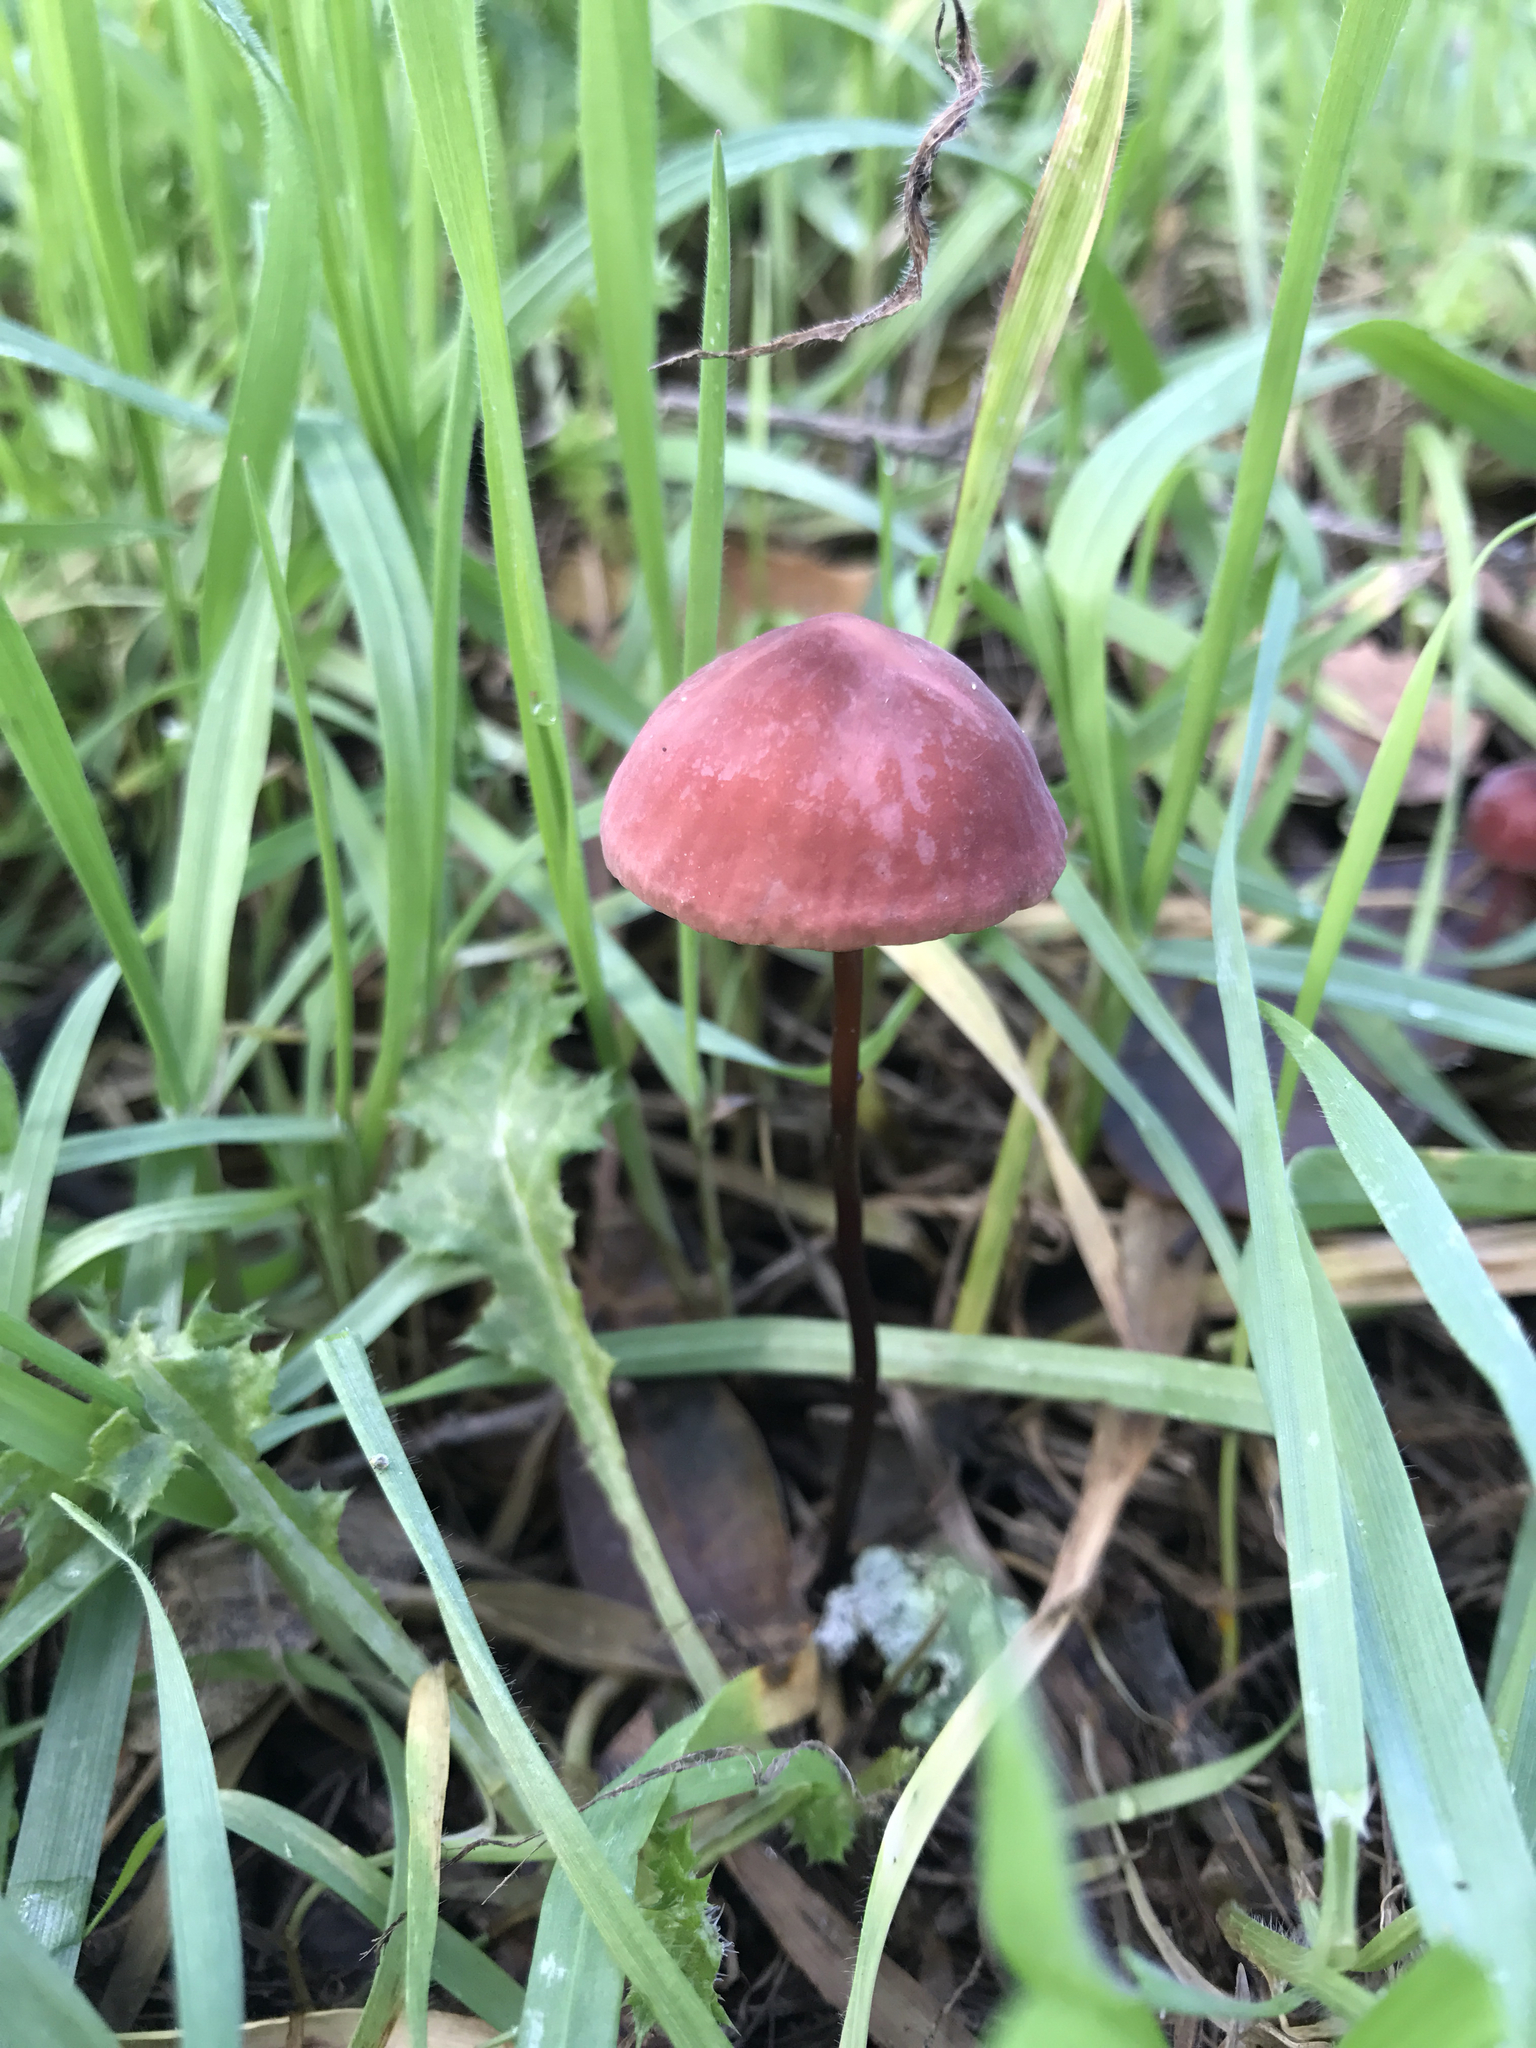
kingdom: Fungi
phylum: Basidiomycota
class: Agaricomycetes
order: Agaricales
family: Marasmiaceae
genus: Marasmius
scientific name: Marasmius plicatulus
